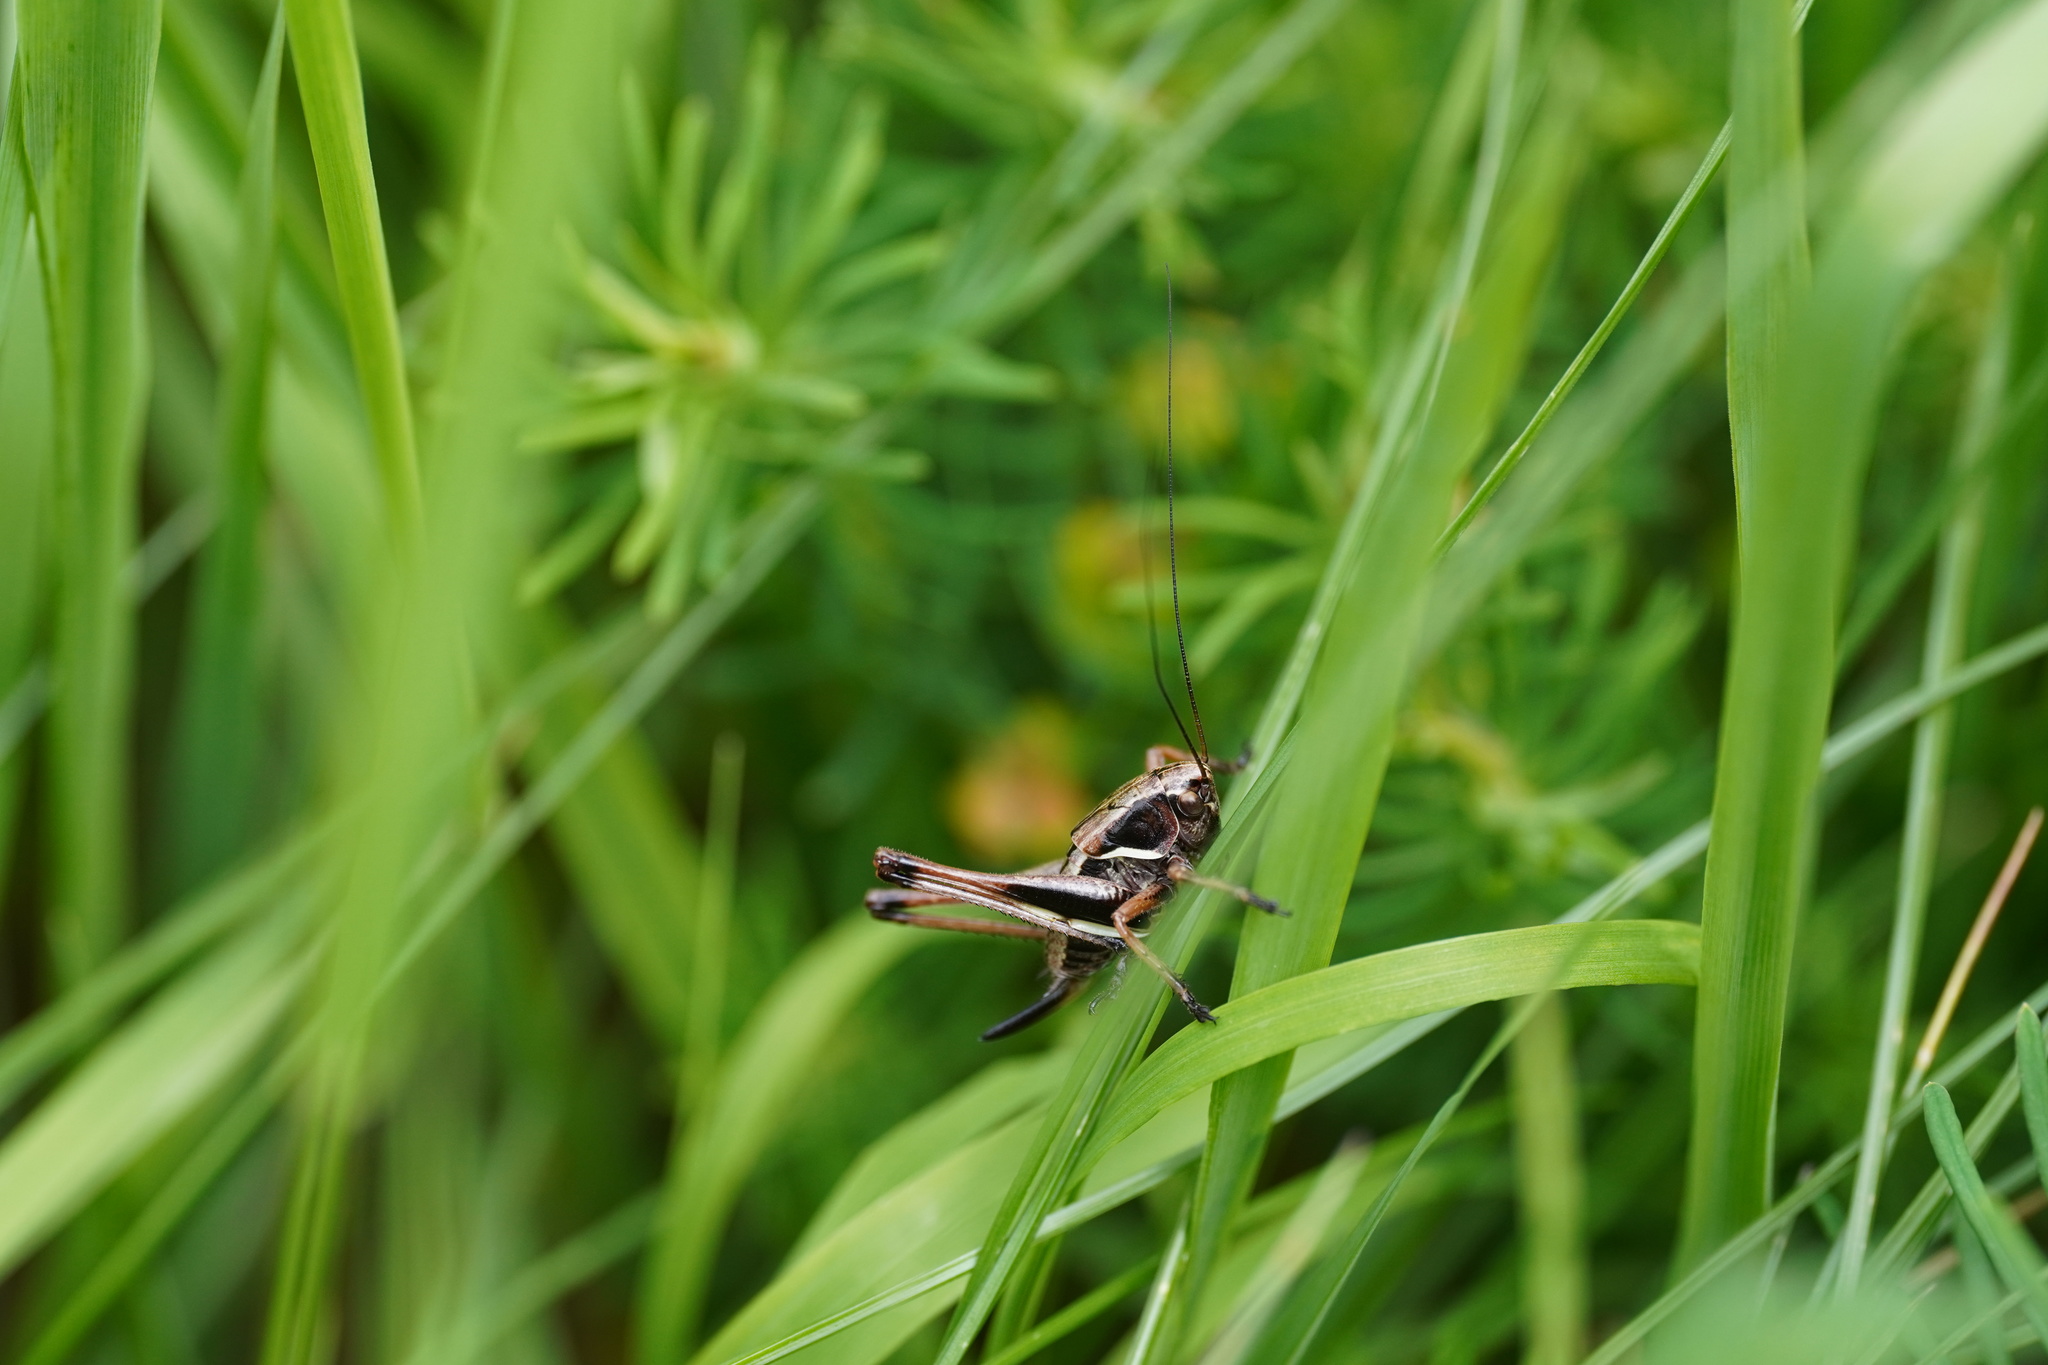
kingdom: Animalia
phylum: Arthropoda
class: Insecta
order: Orthoptera
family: Tettigoniidae
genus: Pholidoptera
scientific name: Pholidoptera aptera
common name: Alpine dark bush-cricket
